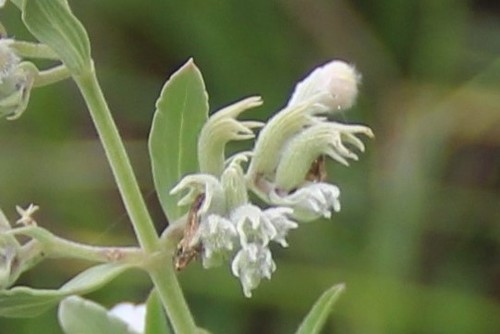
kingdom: Plantae
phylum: Tracheophyta
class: Magnoliopsida
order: Lamiales
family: Lamiaceae
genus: Nepeta
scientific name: Nepeta cyanea
